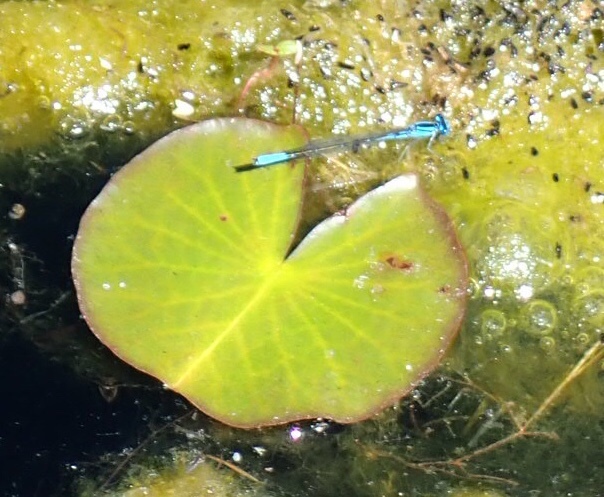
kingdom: Animalia
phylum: Arthropoda
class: Insecta
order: Odonata
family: Coenagrionidae
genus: Enallagma
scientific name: Enallagma aspersum
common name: Azure bluet
